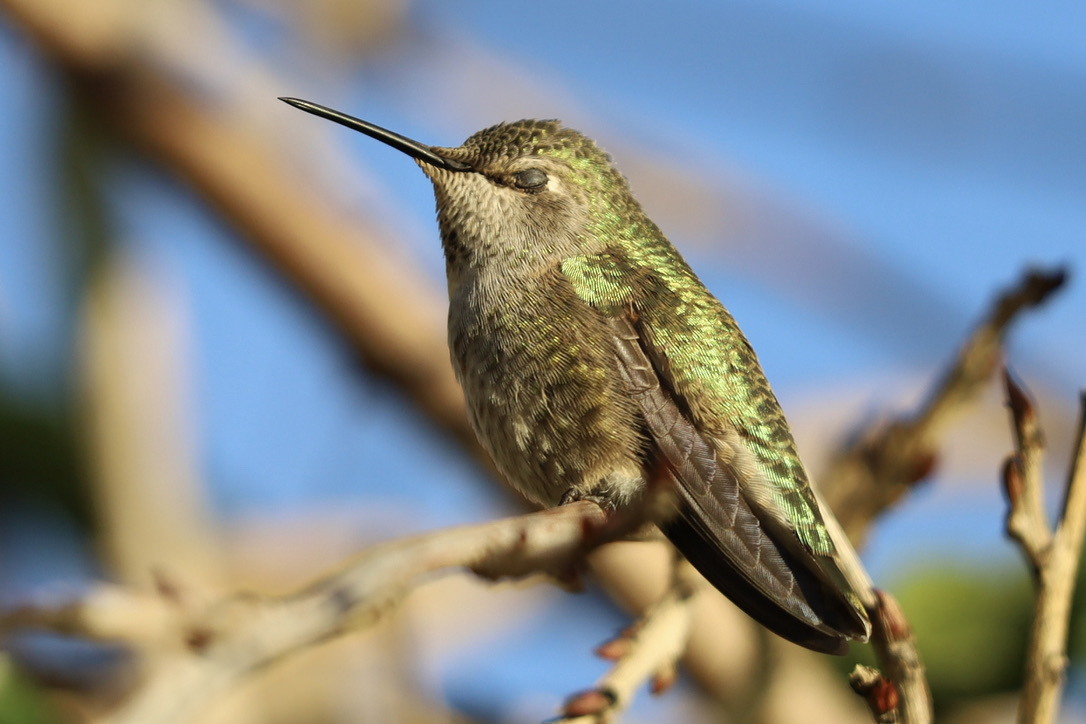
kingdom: Animalia
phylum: Chordata
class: Aves
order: Apodiformes
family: Trochilidae
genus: Calypte
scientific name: Calypte anna
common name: Anna's hummingbird
